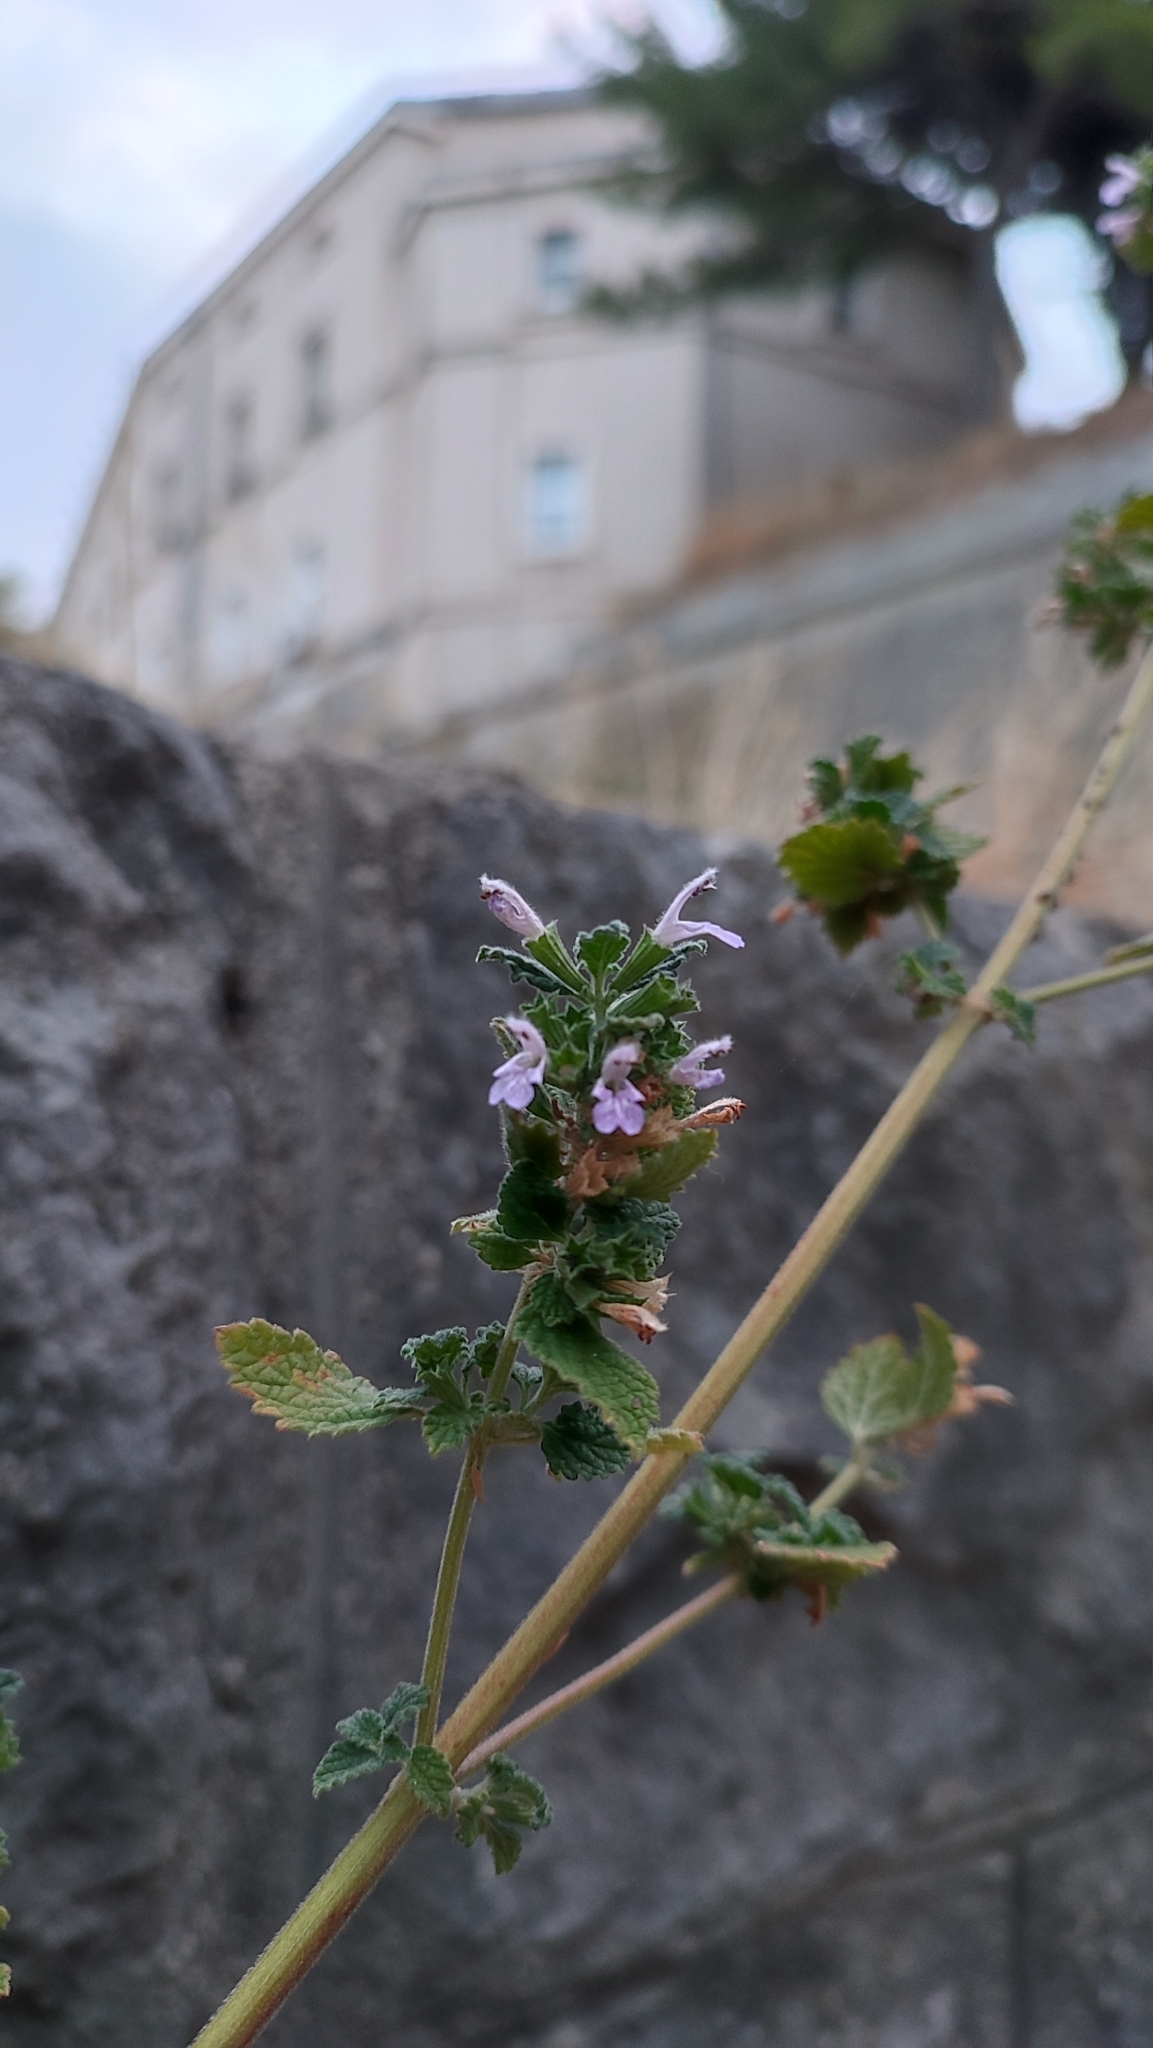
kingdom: Plantae
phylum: Tracheophyta
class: Magnoliopsida
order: Lamiales
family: Lamiaceae
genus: Ballota
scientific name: Ballota nigra
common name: Black horehound
